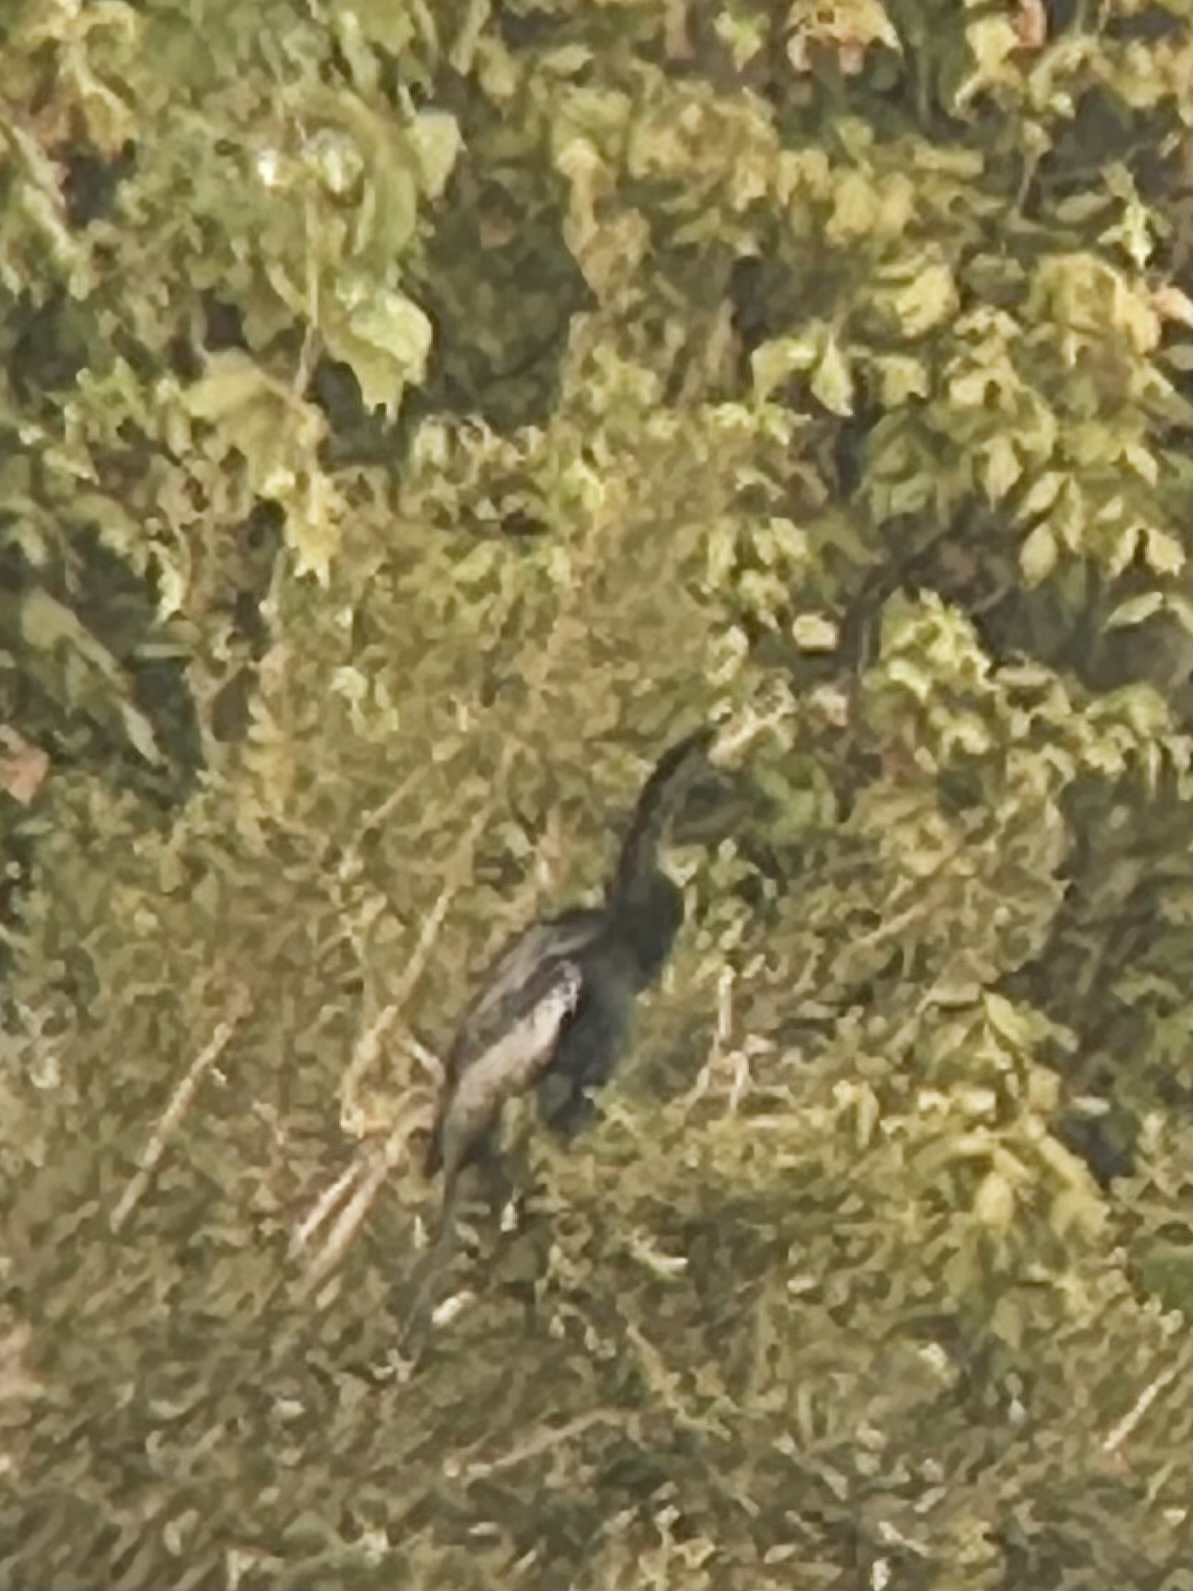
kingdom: Animalia
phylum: Chordata
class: Aves
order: Suliformes
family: Anhingidae
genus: Anhinga
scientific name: Anhinga anhinga
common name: Anhinga
